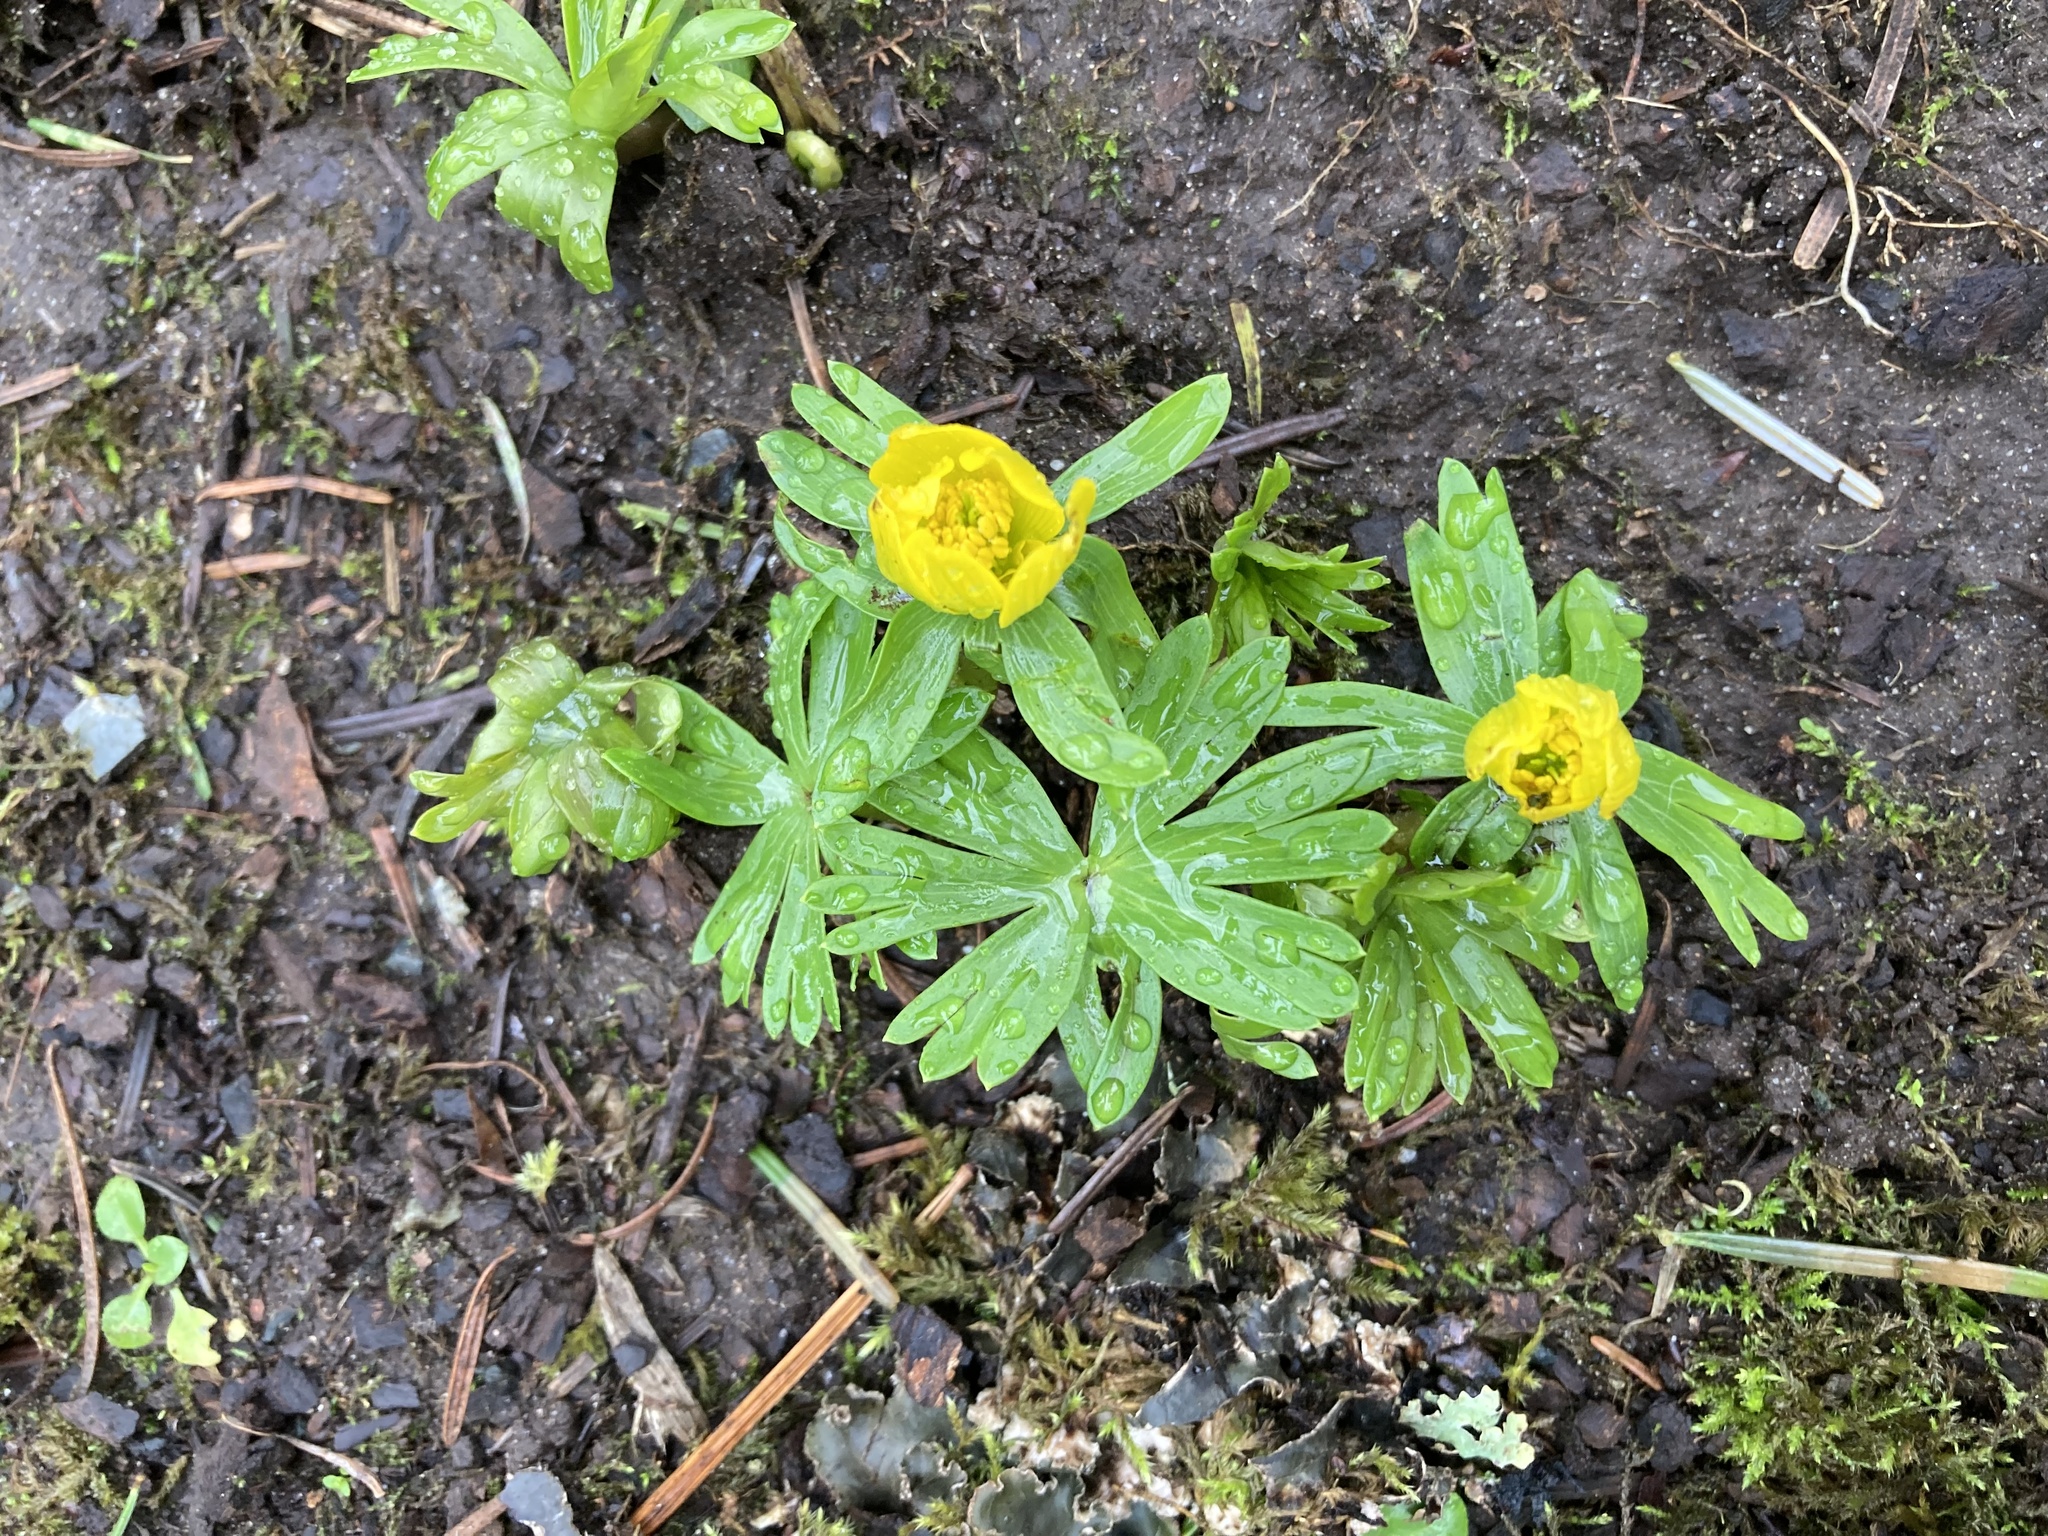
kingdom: Plantae
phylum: Tracheophyta
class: Magnoliopsida
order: Ranunculales
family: Ranunculaceae
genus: Eranthis
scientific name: Eranthis hyemalis
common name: Winter aconite
